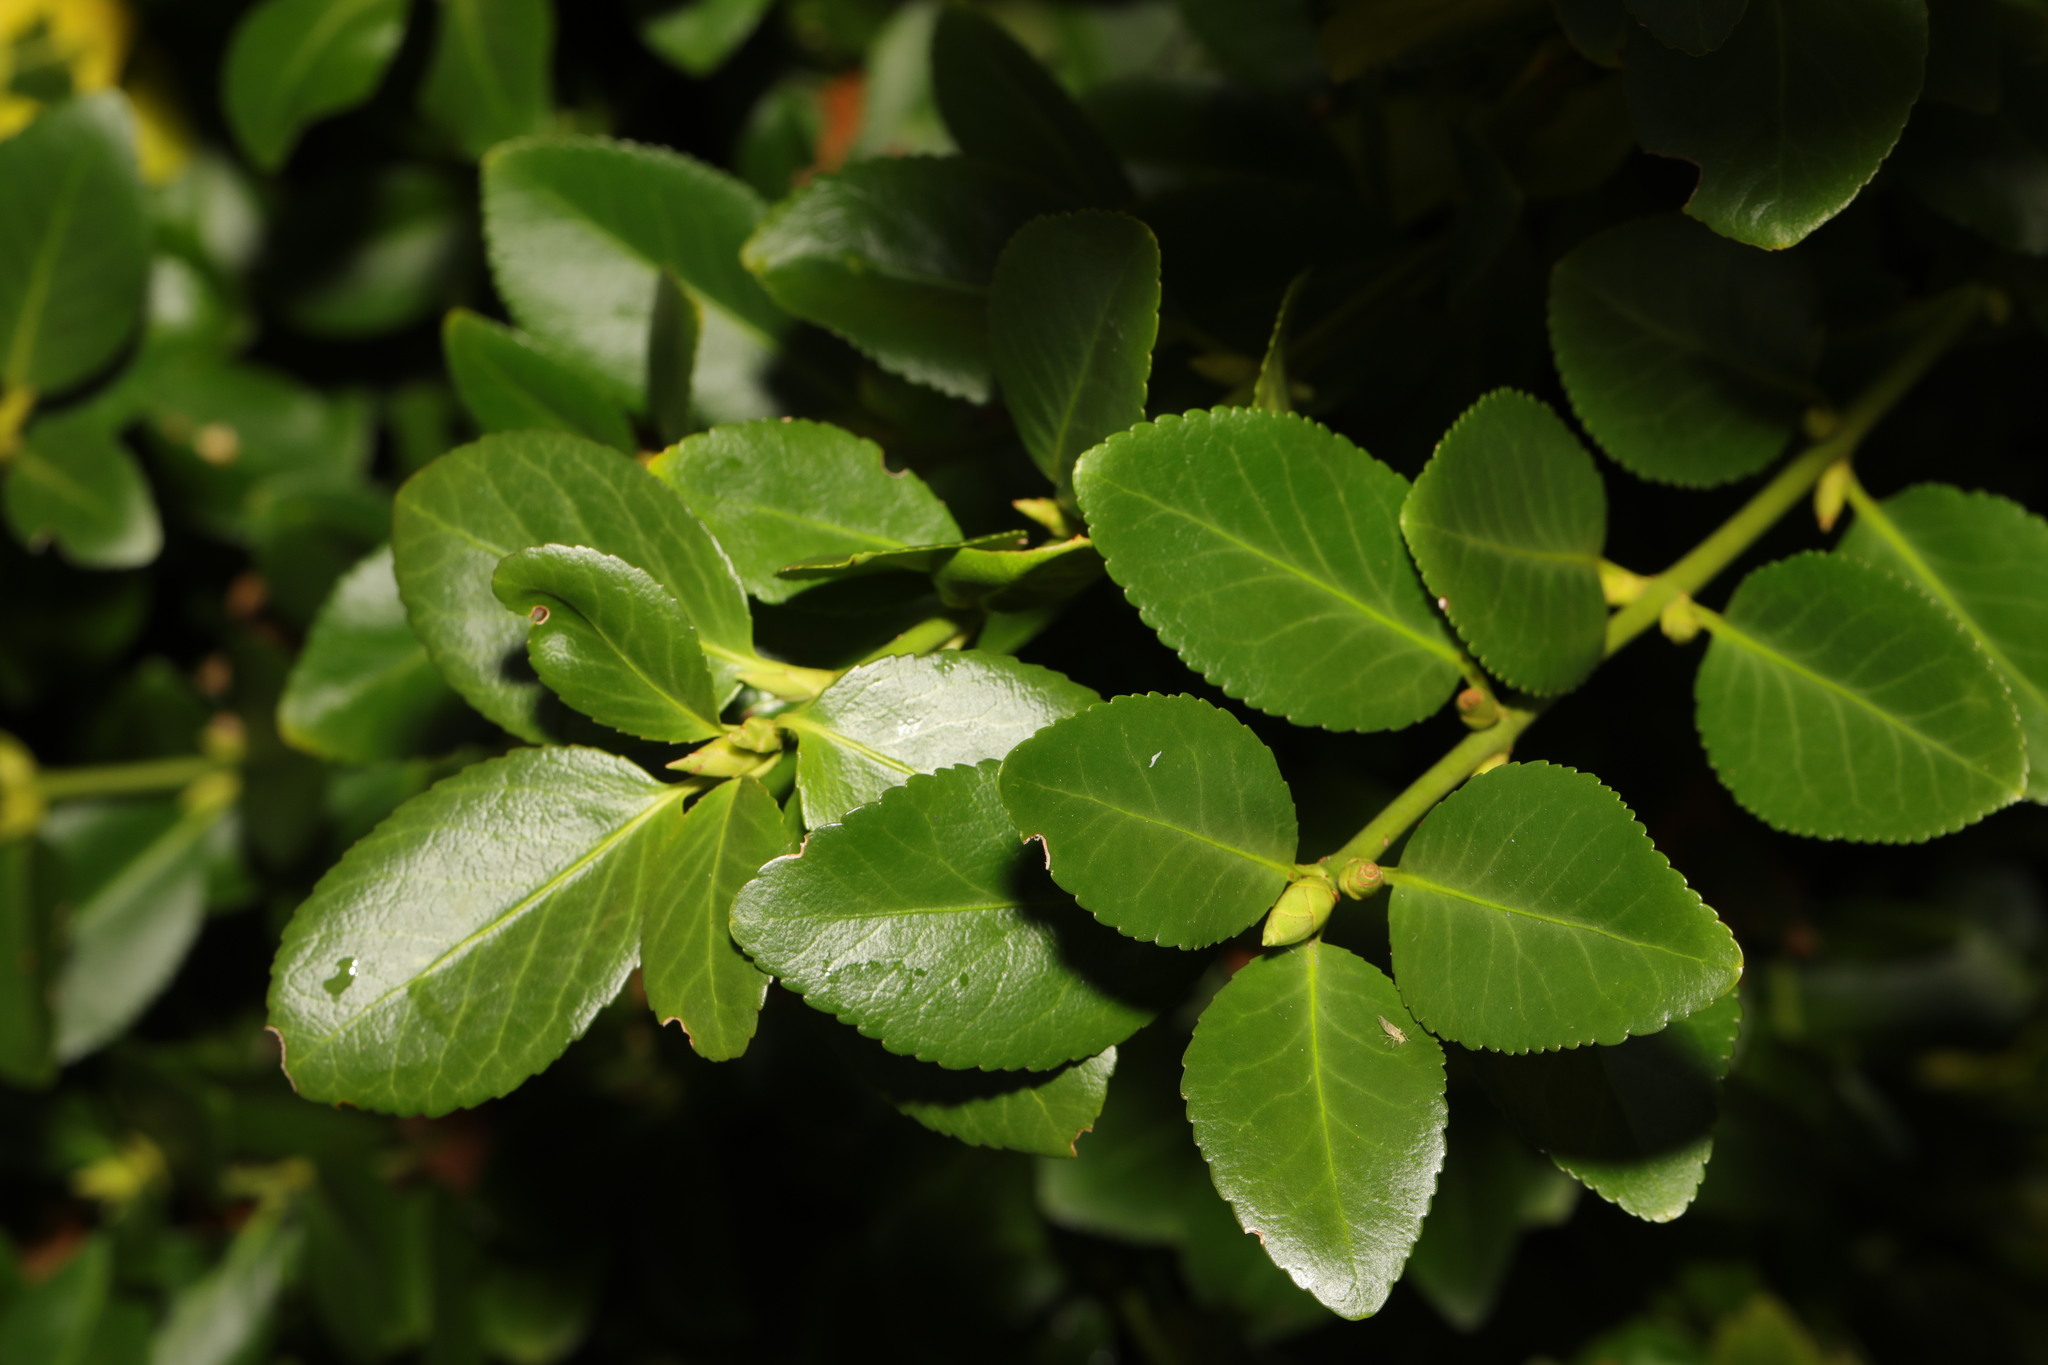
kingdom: Plantae
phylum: Tracheophyta
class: Magnoliopsida
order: Celastrales
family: Celastraceae
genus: Euonymus
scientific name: Euonymus japonicus
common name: Japanese spindletree
